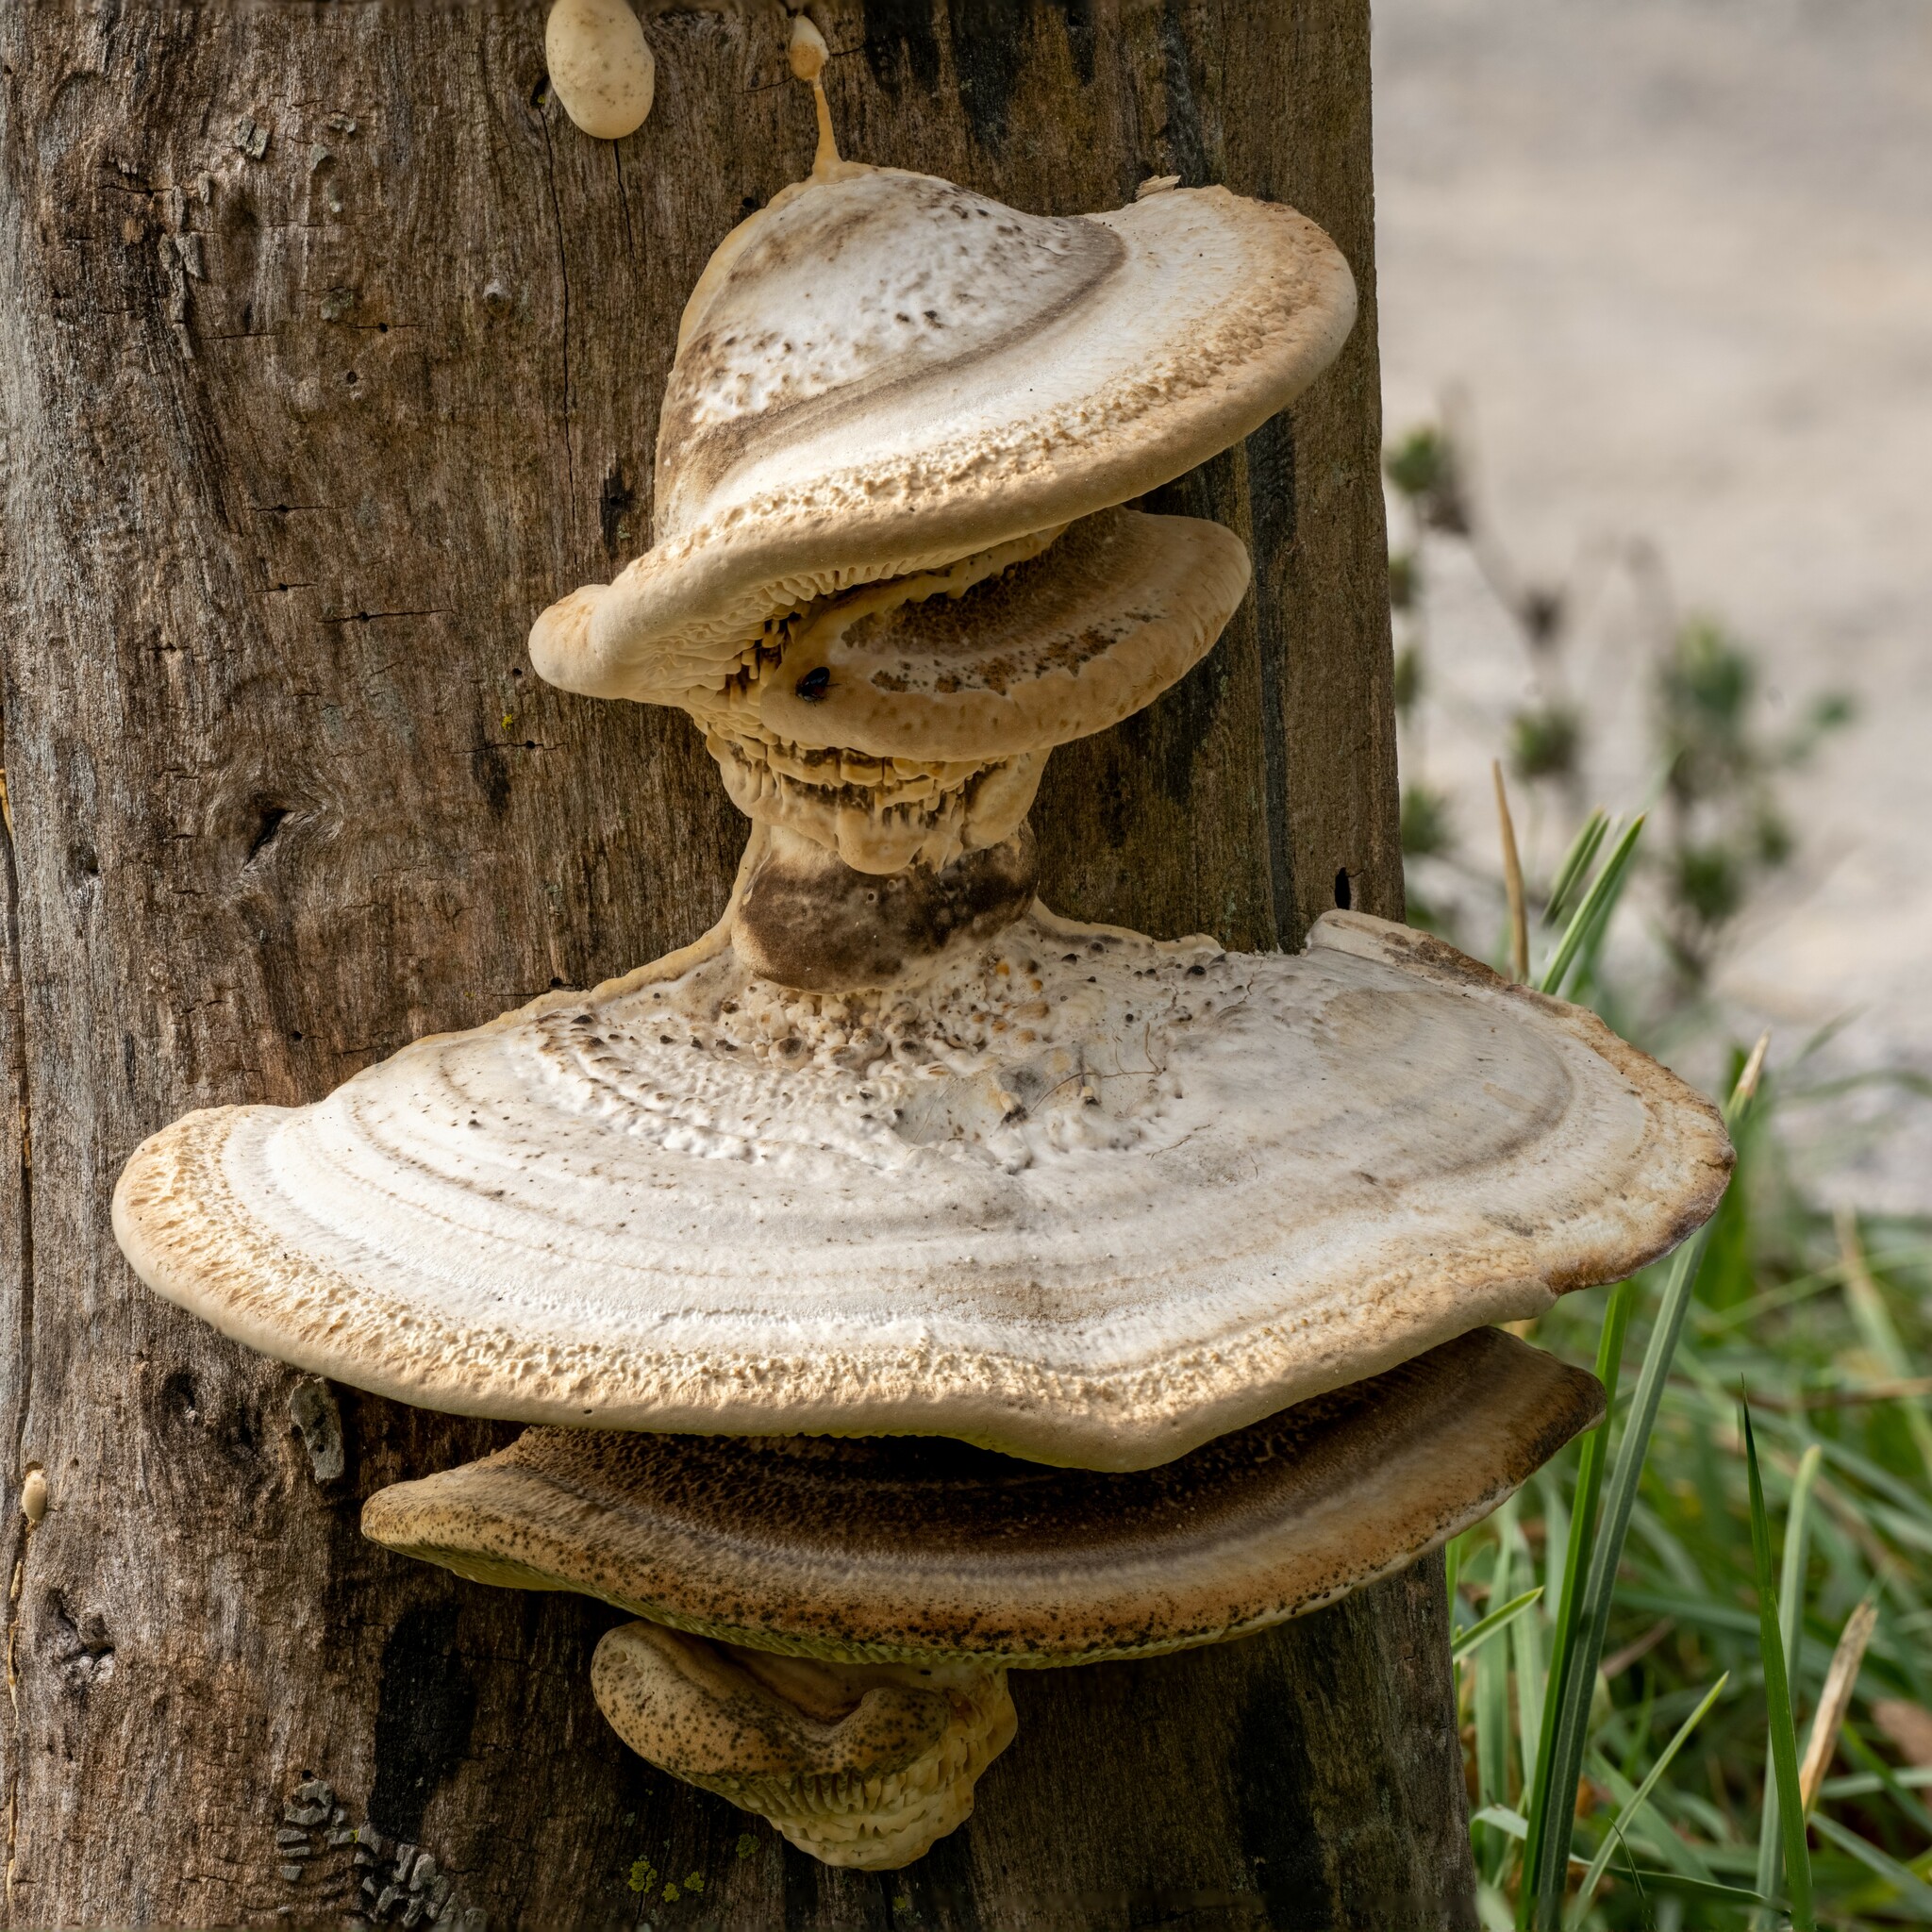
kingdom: Fungi
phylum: Basidiomycota
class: Agaricomycetes
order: Polyporales
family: Fomitopsidaceae
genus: Fomitopsis
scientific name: Fomitopsis
